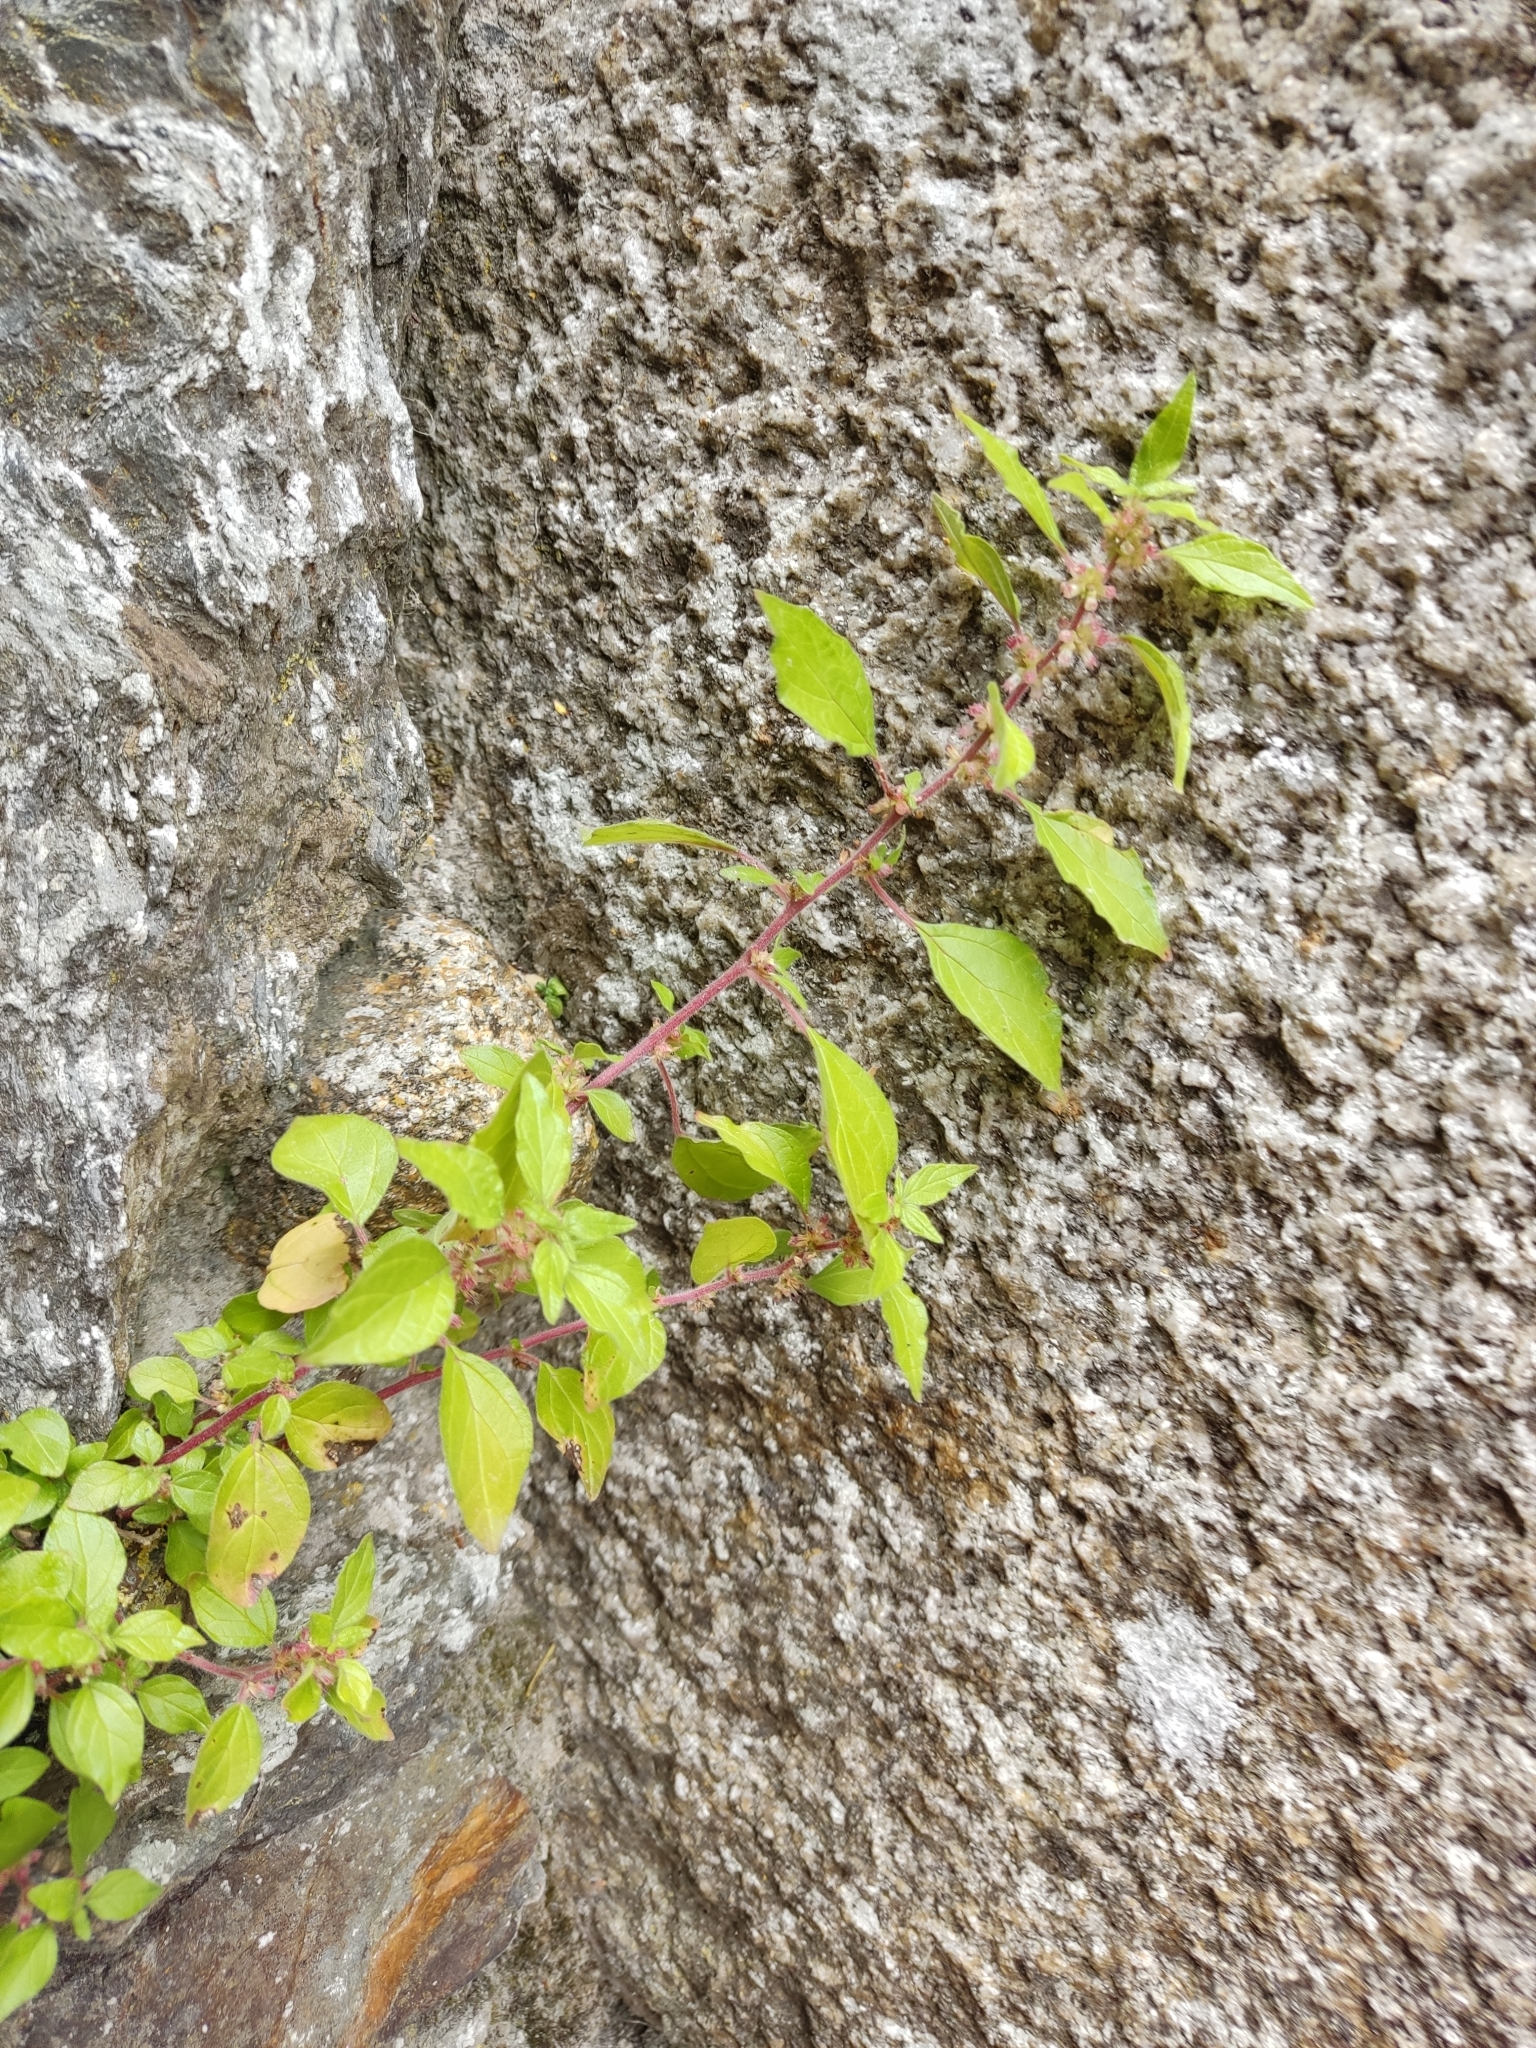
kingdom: Plantae
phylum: Tracheophyta
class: Magnoliopsida
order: Rosales
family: Urticaceae
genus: Parietaria
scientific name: Parietaria judaica
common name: Pellitory-of-the-wall
